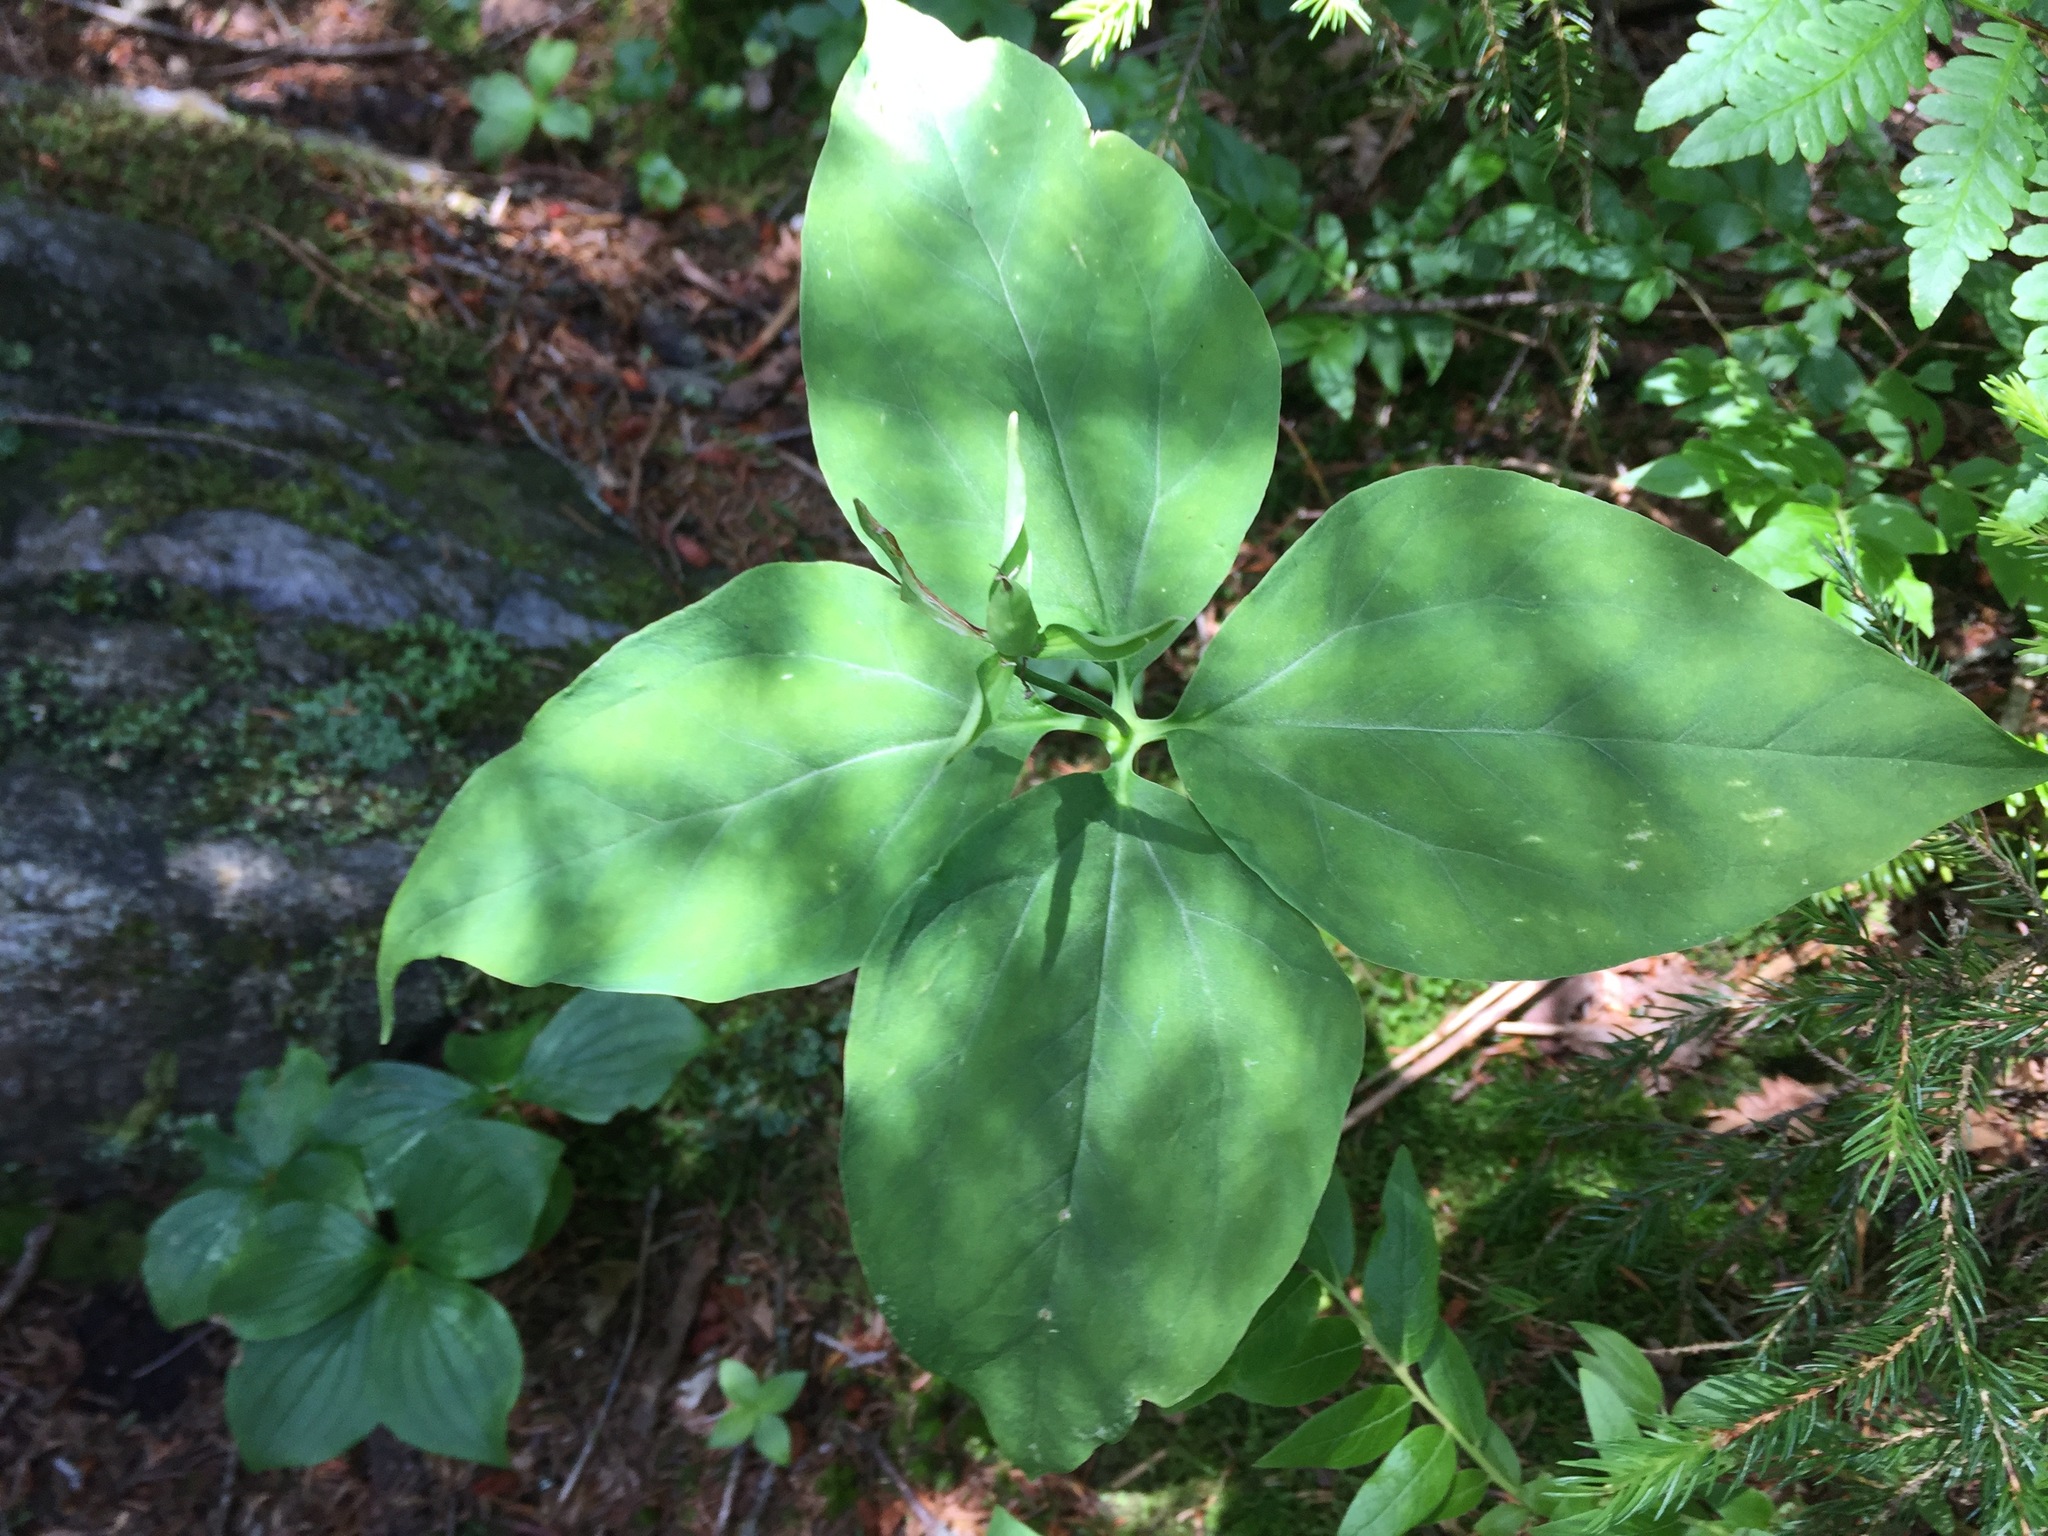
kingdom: Plantae
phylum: Tracheophyta
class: Liliopsida
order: Liliales
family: Melanthiaceae
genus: Trillium
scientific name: Trillium undulatum
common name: Paint trillium
